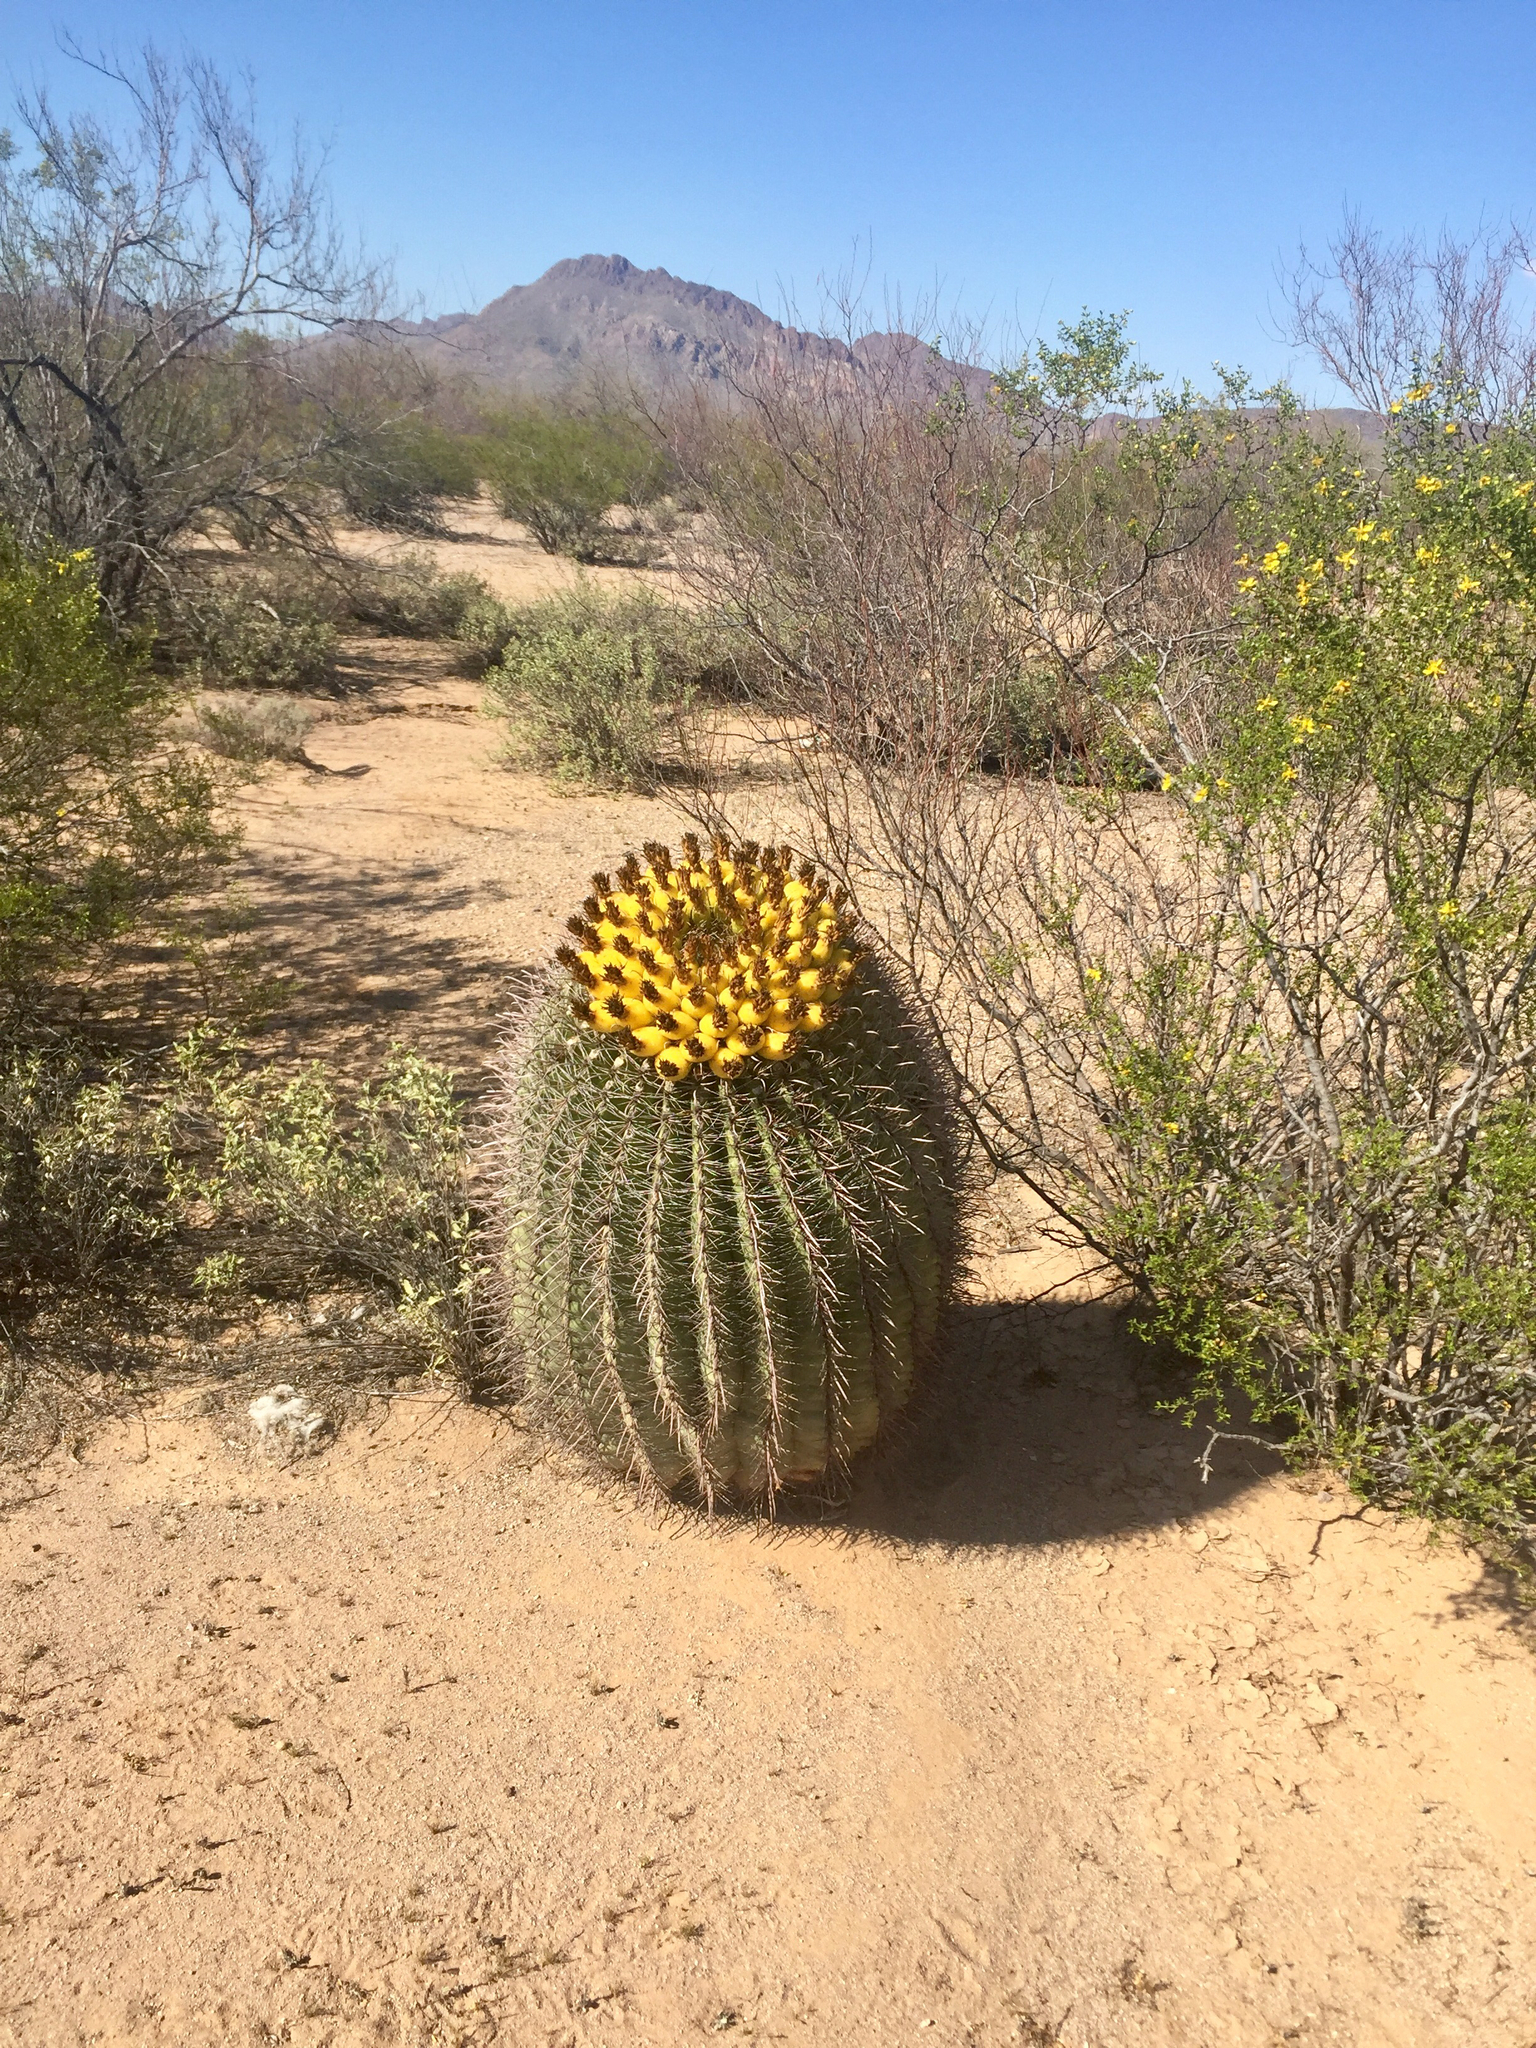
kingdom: Plantae
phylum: Tracheophyta
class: Magnoliopsida
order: Caryophyllales
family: Cactaceae
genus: Ferocactus
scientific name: Ferocactus wislizeni
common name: Candy barrel cactus
